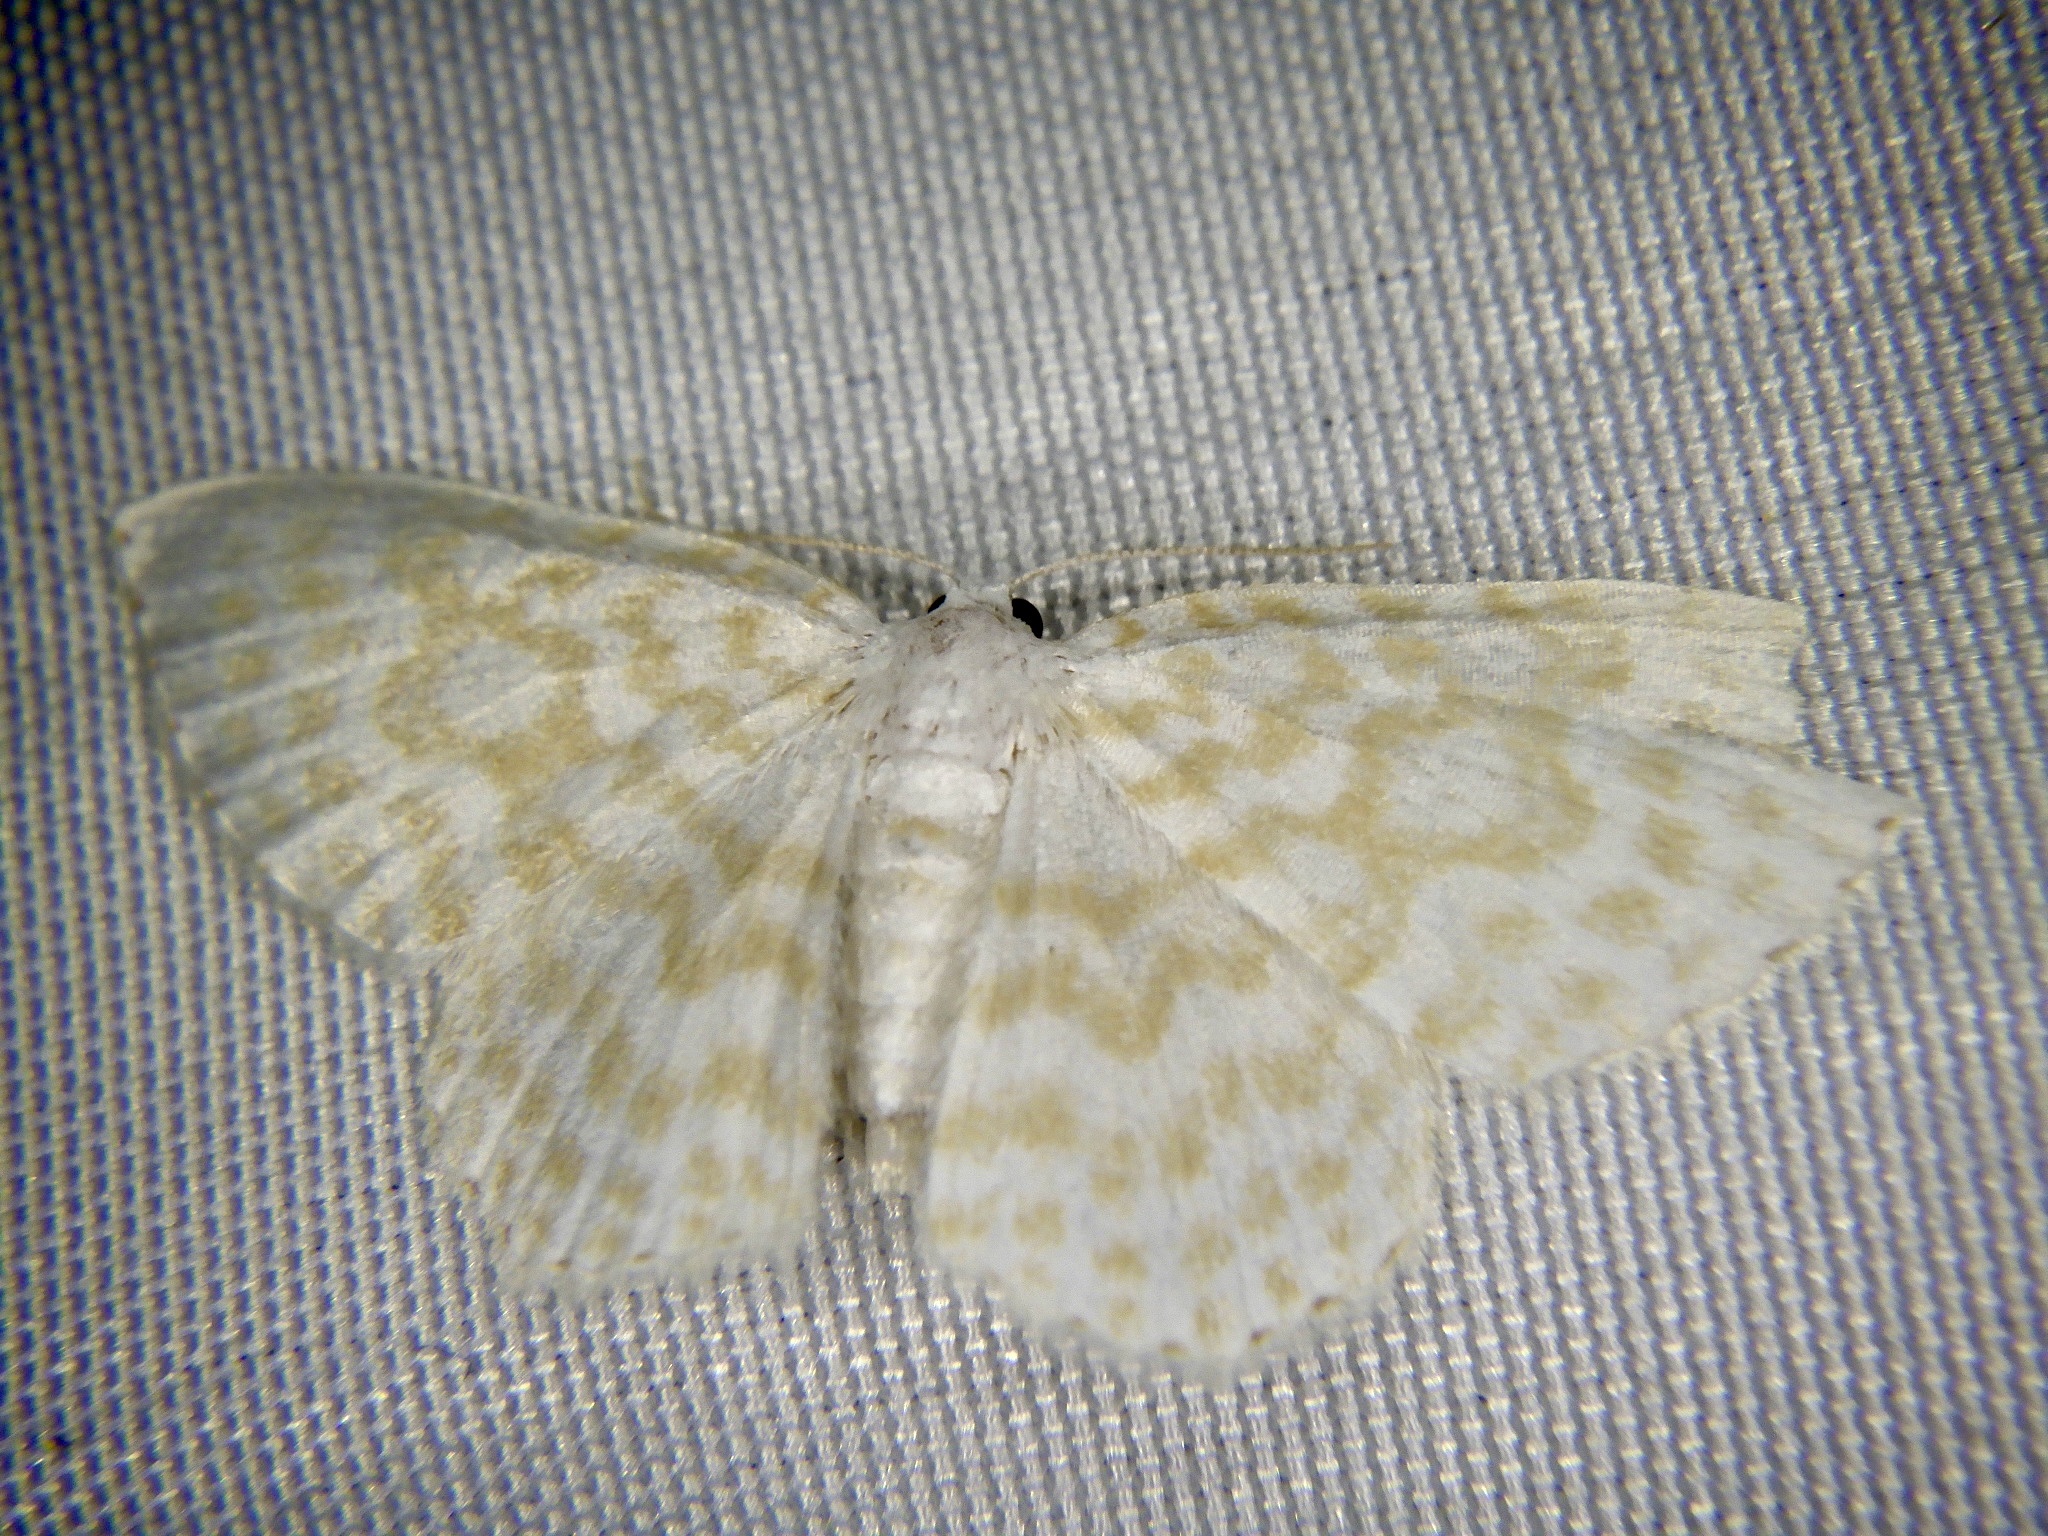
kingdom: Animalia
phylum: Arthropoda
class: Insecta
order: Lepidoptera
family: Geometridae
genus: Asthena
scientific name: Asthena nymphaeata
